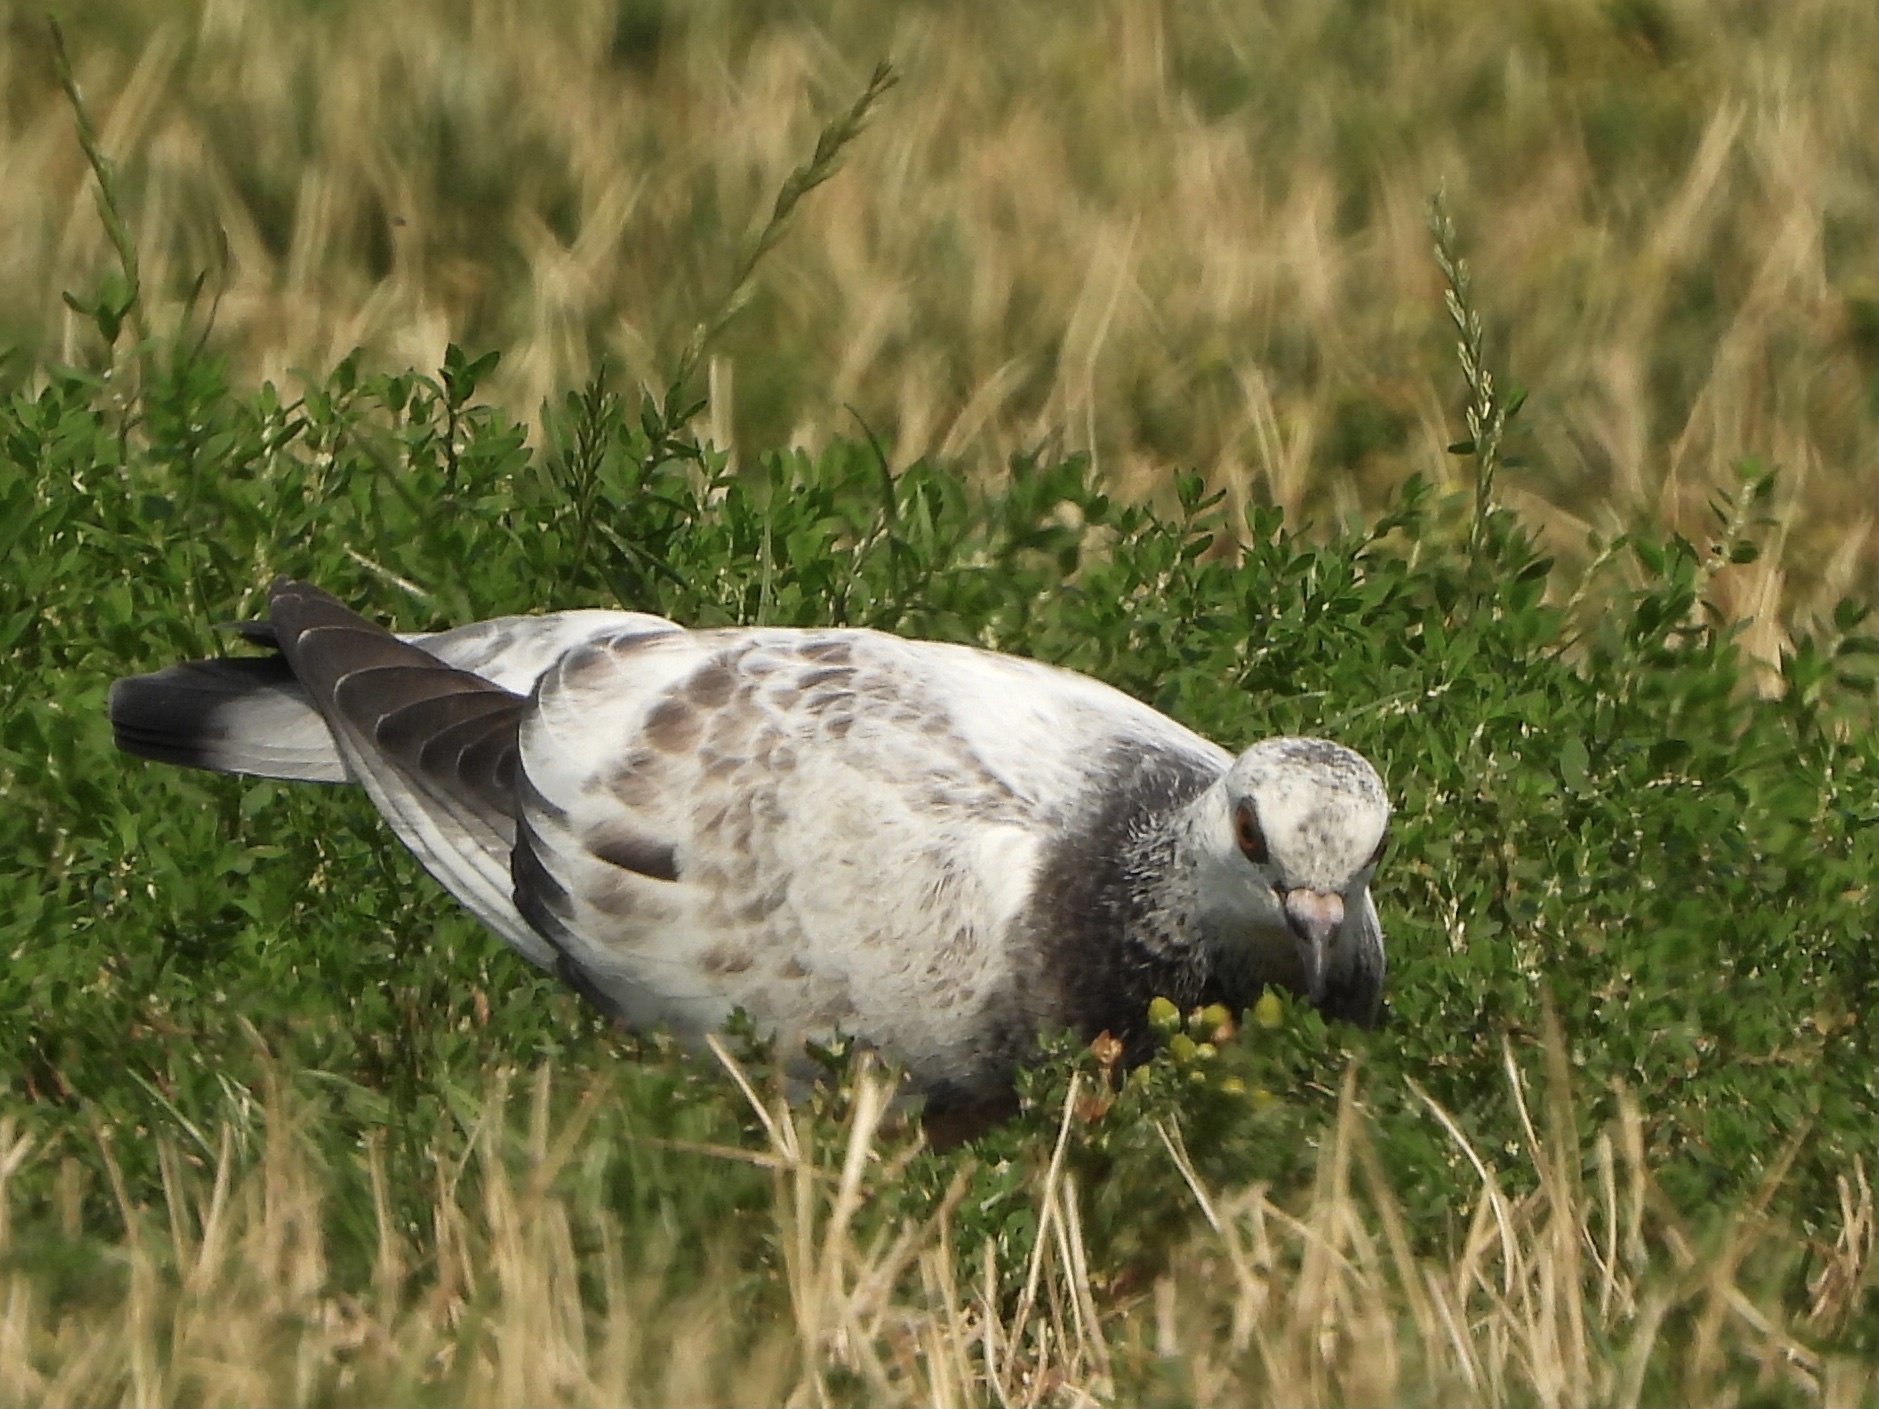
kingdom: Animalia
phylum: Chordata
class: Aves
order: Columbiformes
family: Columbidae
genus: Columba
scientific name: Columba livia
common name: Rock pigeon
